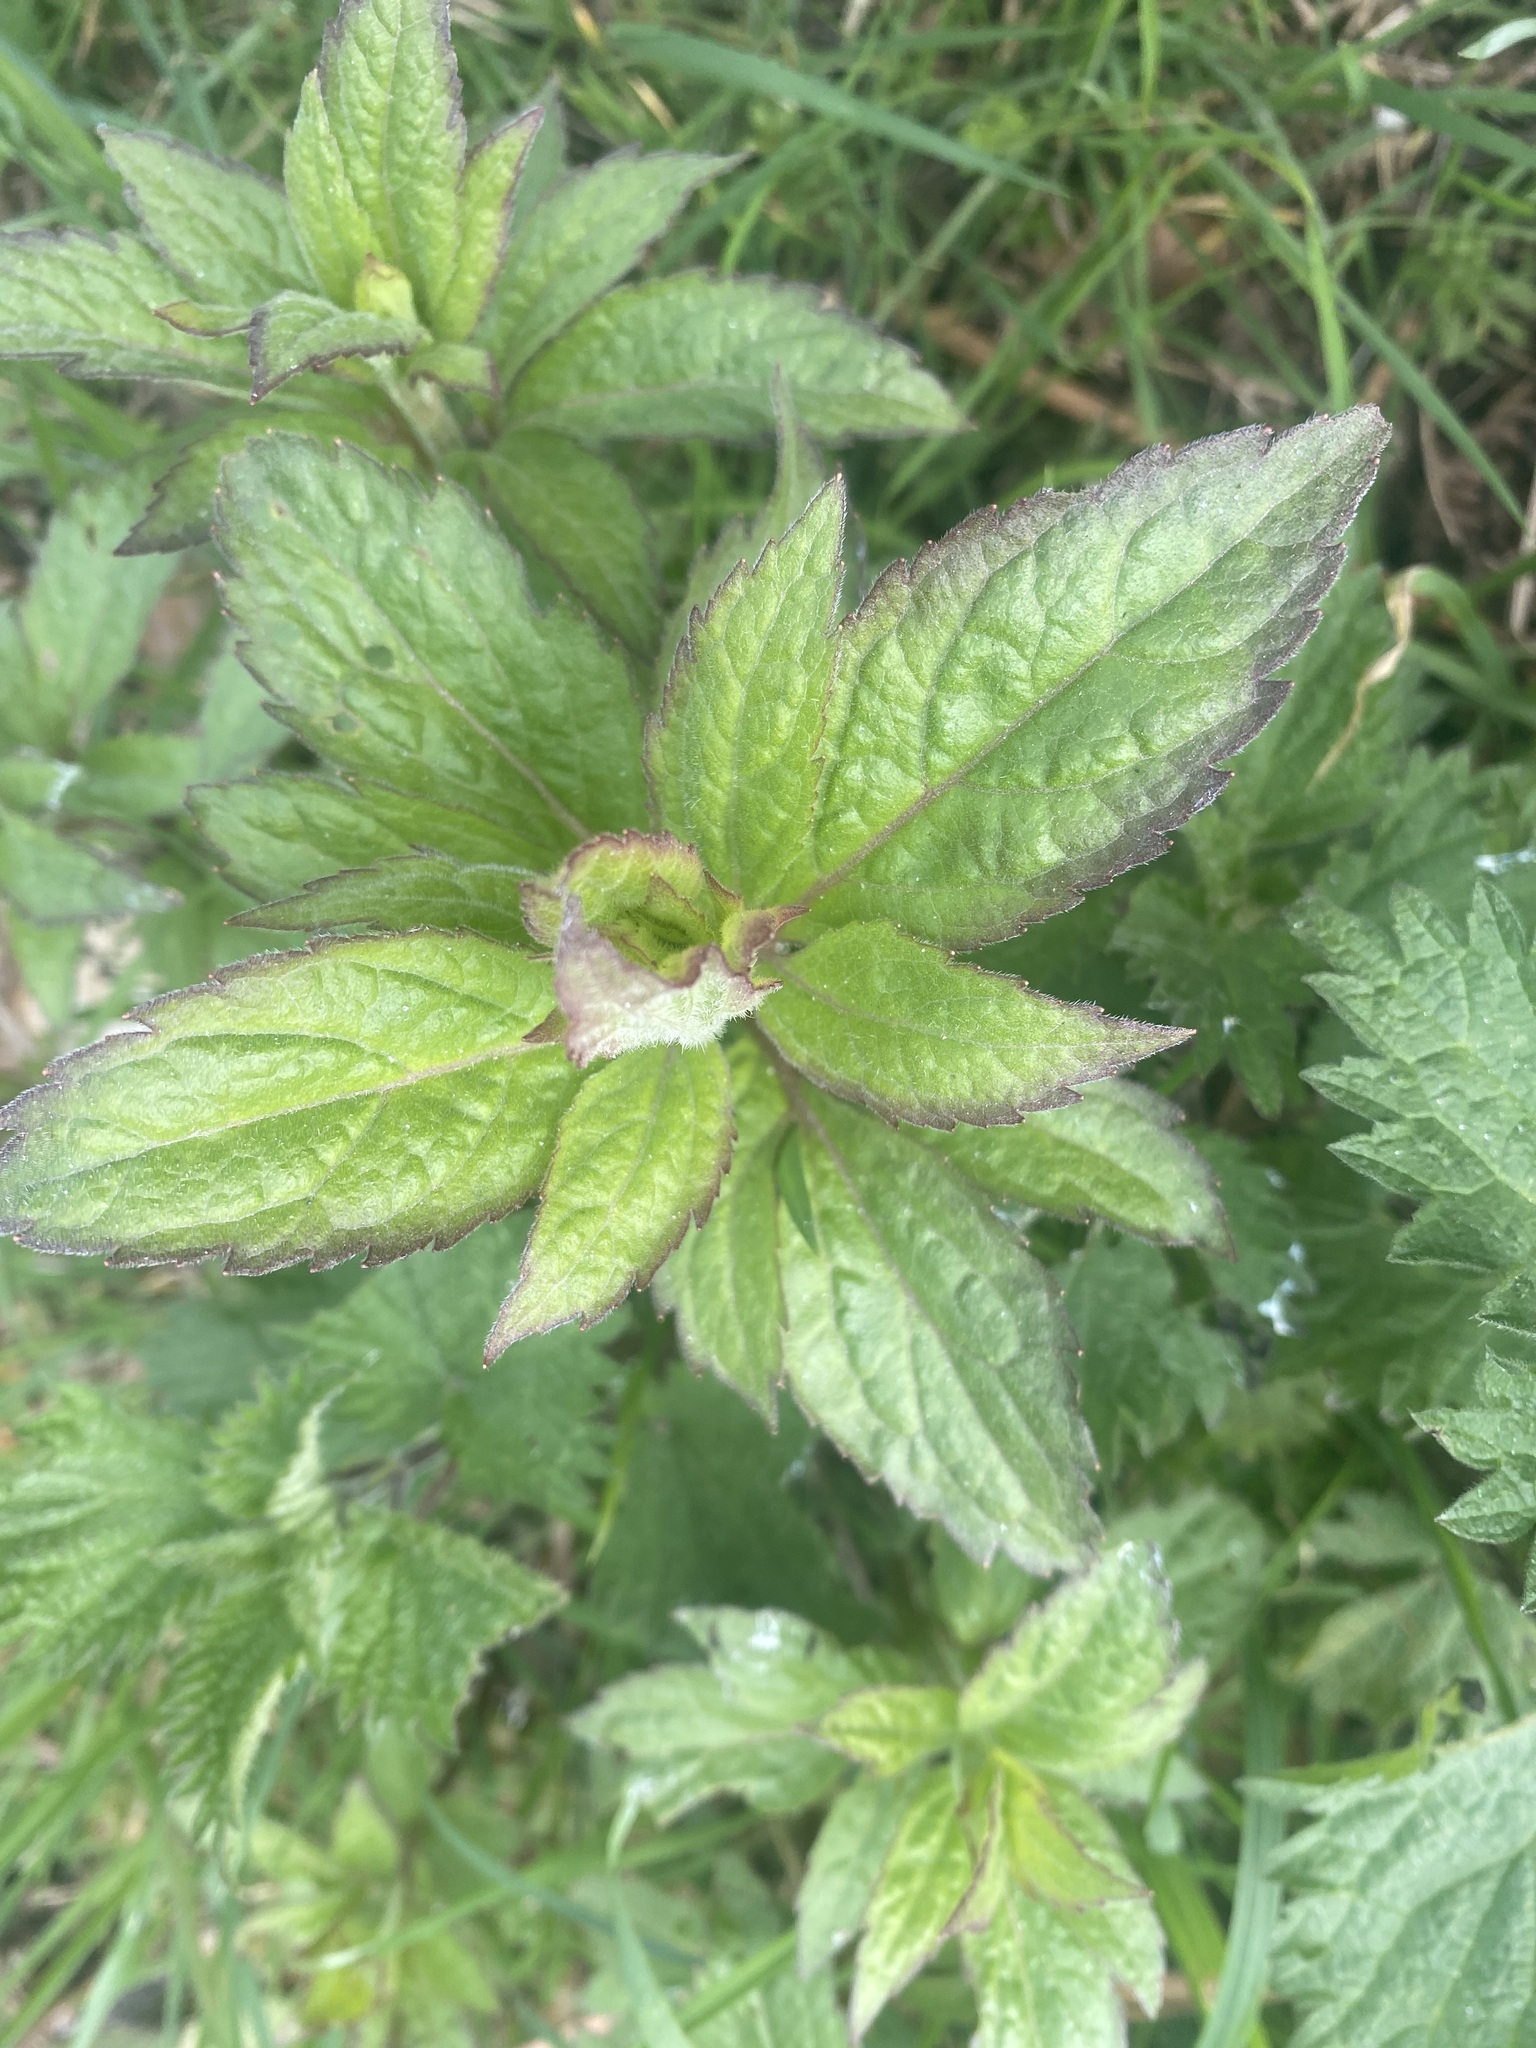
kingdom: Plantae
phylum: Tracheophyta
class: Magnoliopsida
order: Asterales
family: Asteraceae
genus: Eupatorium
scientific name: Eupatorium cannabinum
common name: Hemp-agrimony
